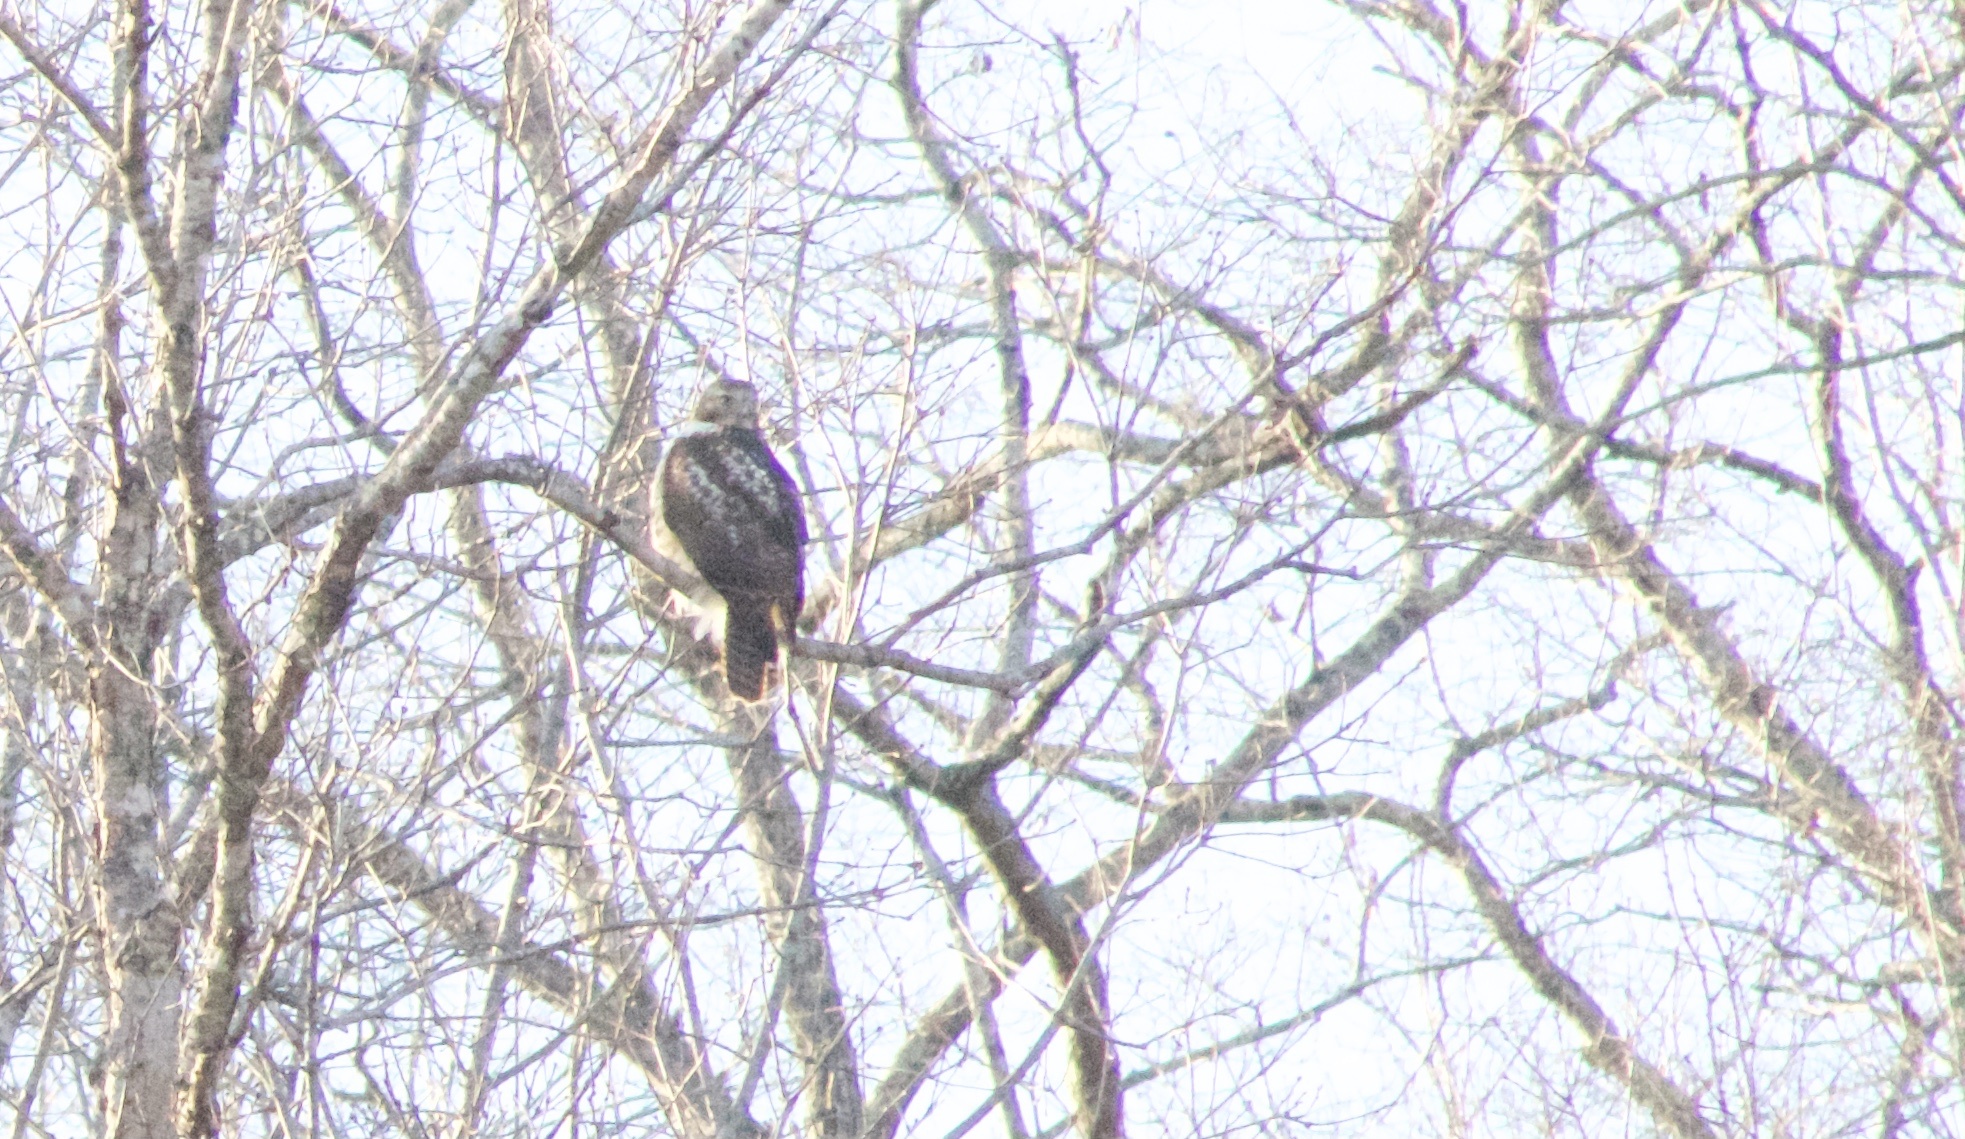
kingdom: Animalia
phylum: Chordata
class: Aves
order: Accipitriformes
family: Accipitridae
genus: Buteo
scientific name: Buteo jamaicensis
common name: Red-tailed hawk
